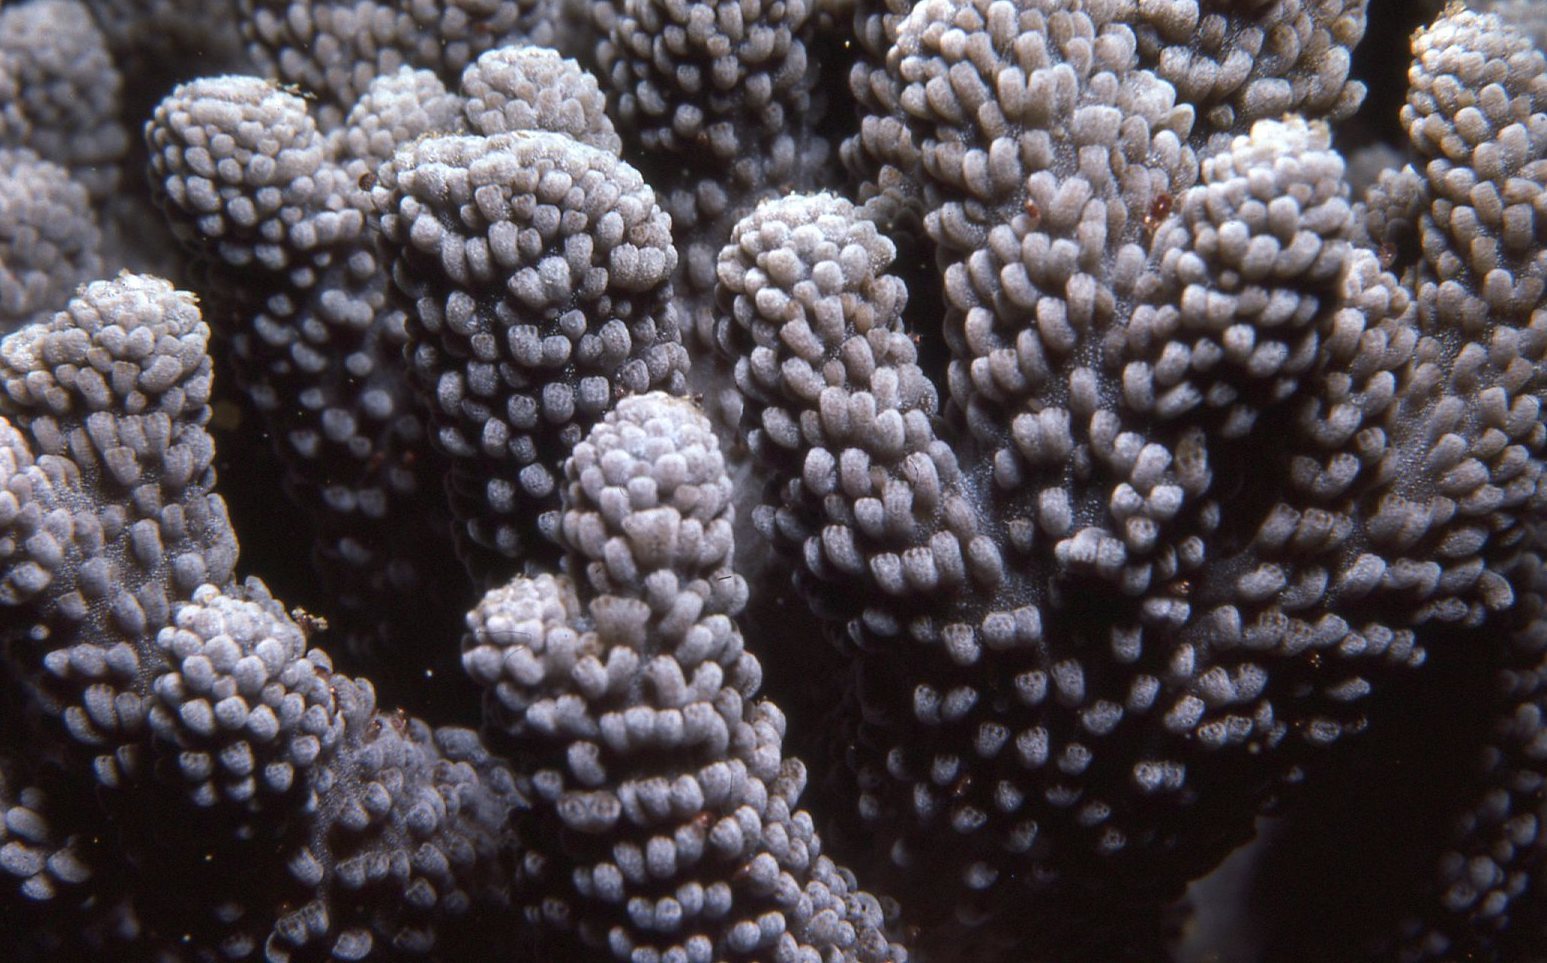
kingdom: Animalia
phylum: Cnidaria
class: Anthozoa
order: Malacalcyonacea
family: Capnellidae
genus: Capnella
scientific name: Capnella gaboensis
